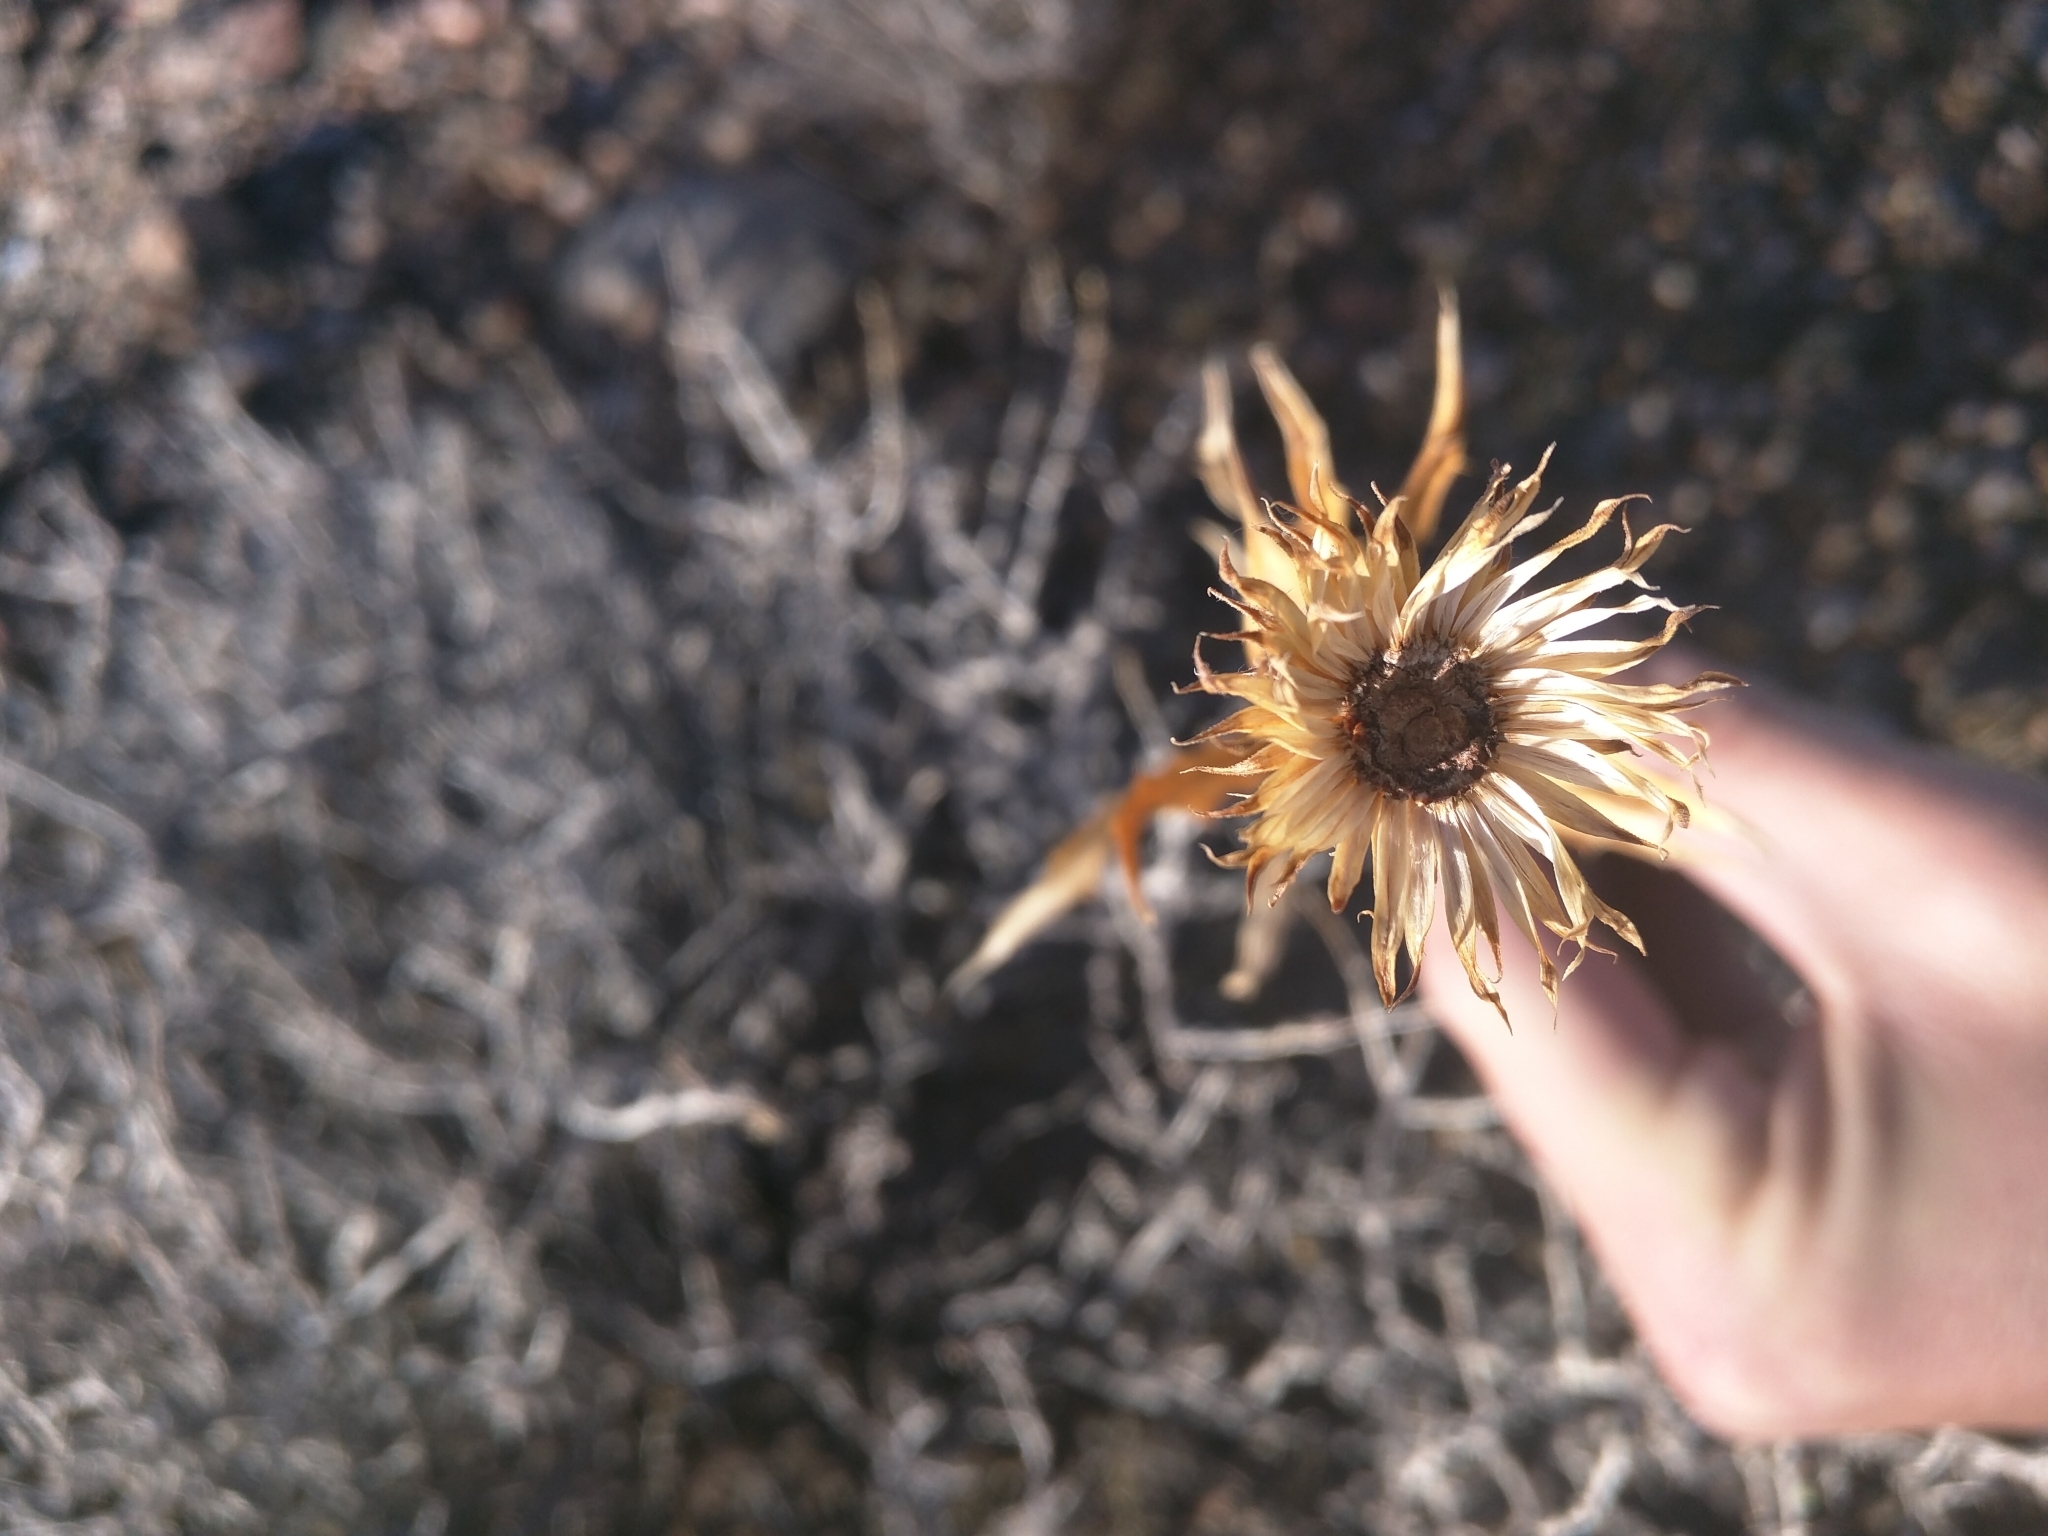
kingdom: Plantae
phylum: Tracheophyta
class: Magnoliopsida
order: Asterales
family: Asteraceae
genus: Xylorhiza
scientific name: Xylorhiza tortifolia
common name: Hurt-leaf woody-aster
